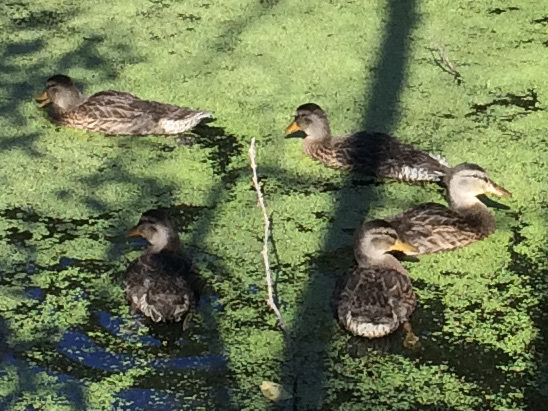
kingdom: Animalia
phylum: Chordata
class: Aves
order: Anseriformes
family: Anatidae
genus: Anas
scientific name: Anas platyrhynchos
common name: Mallard
